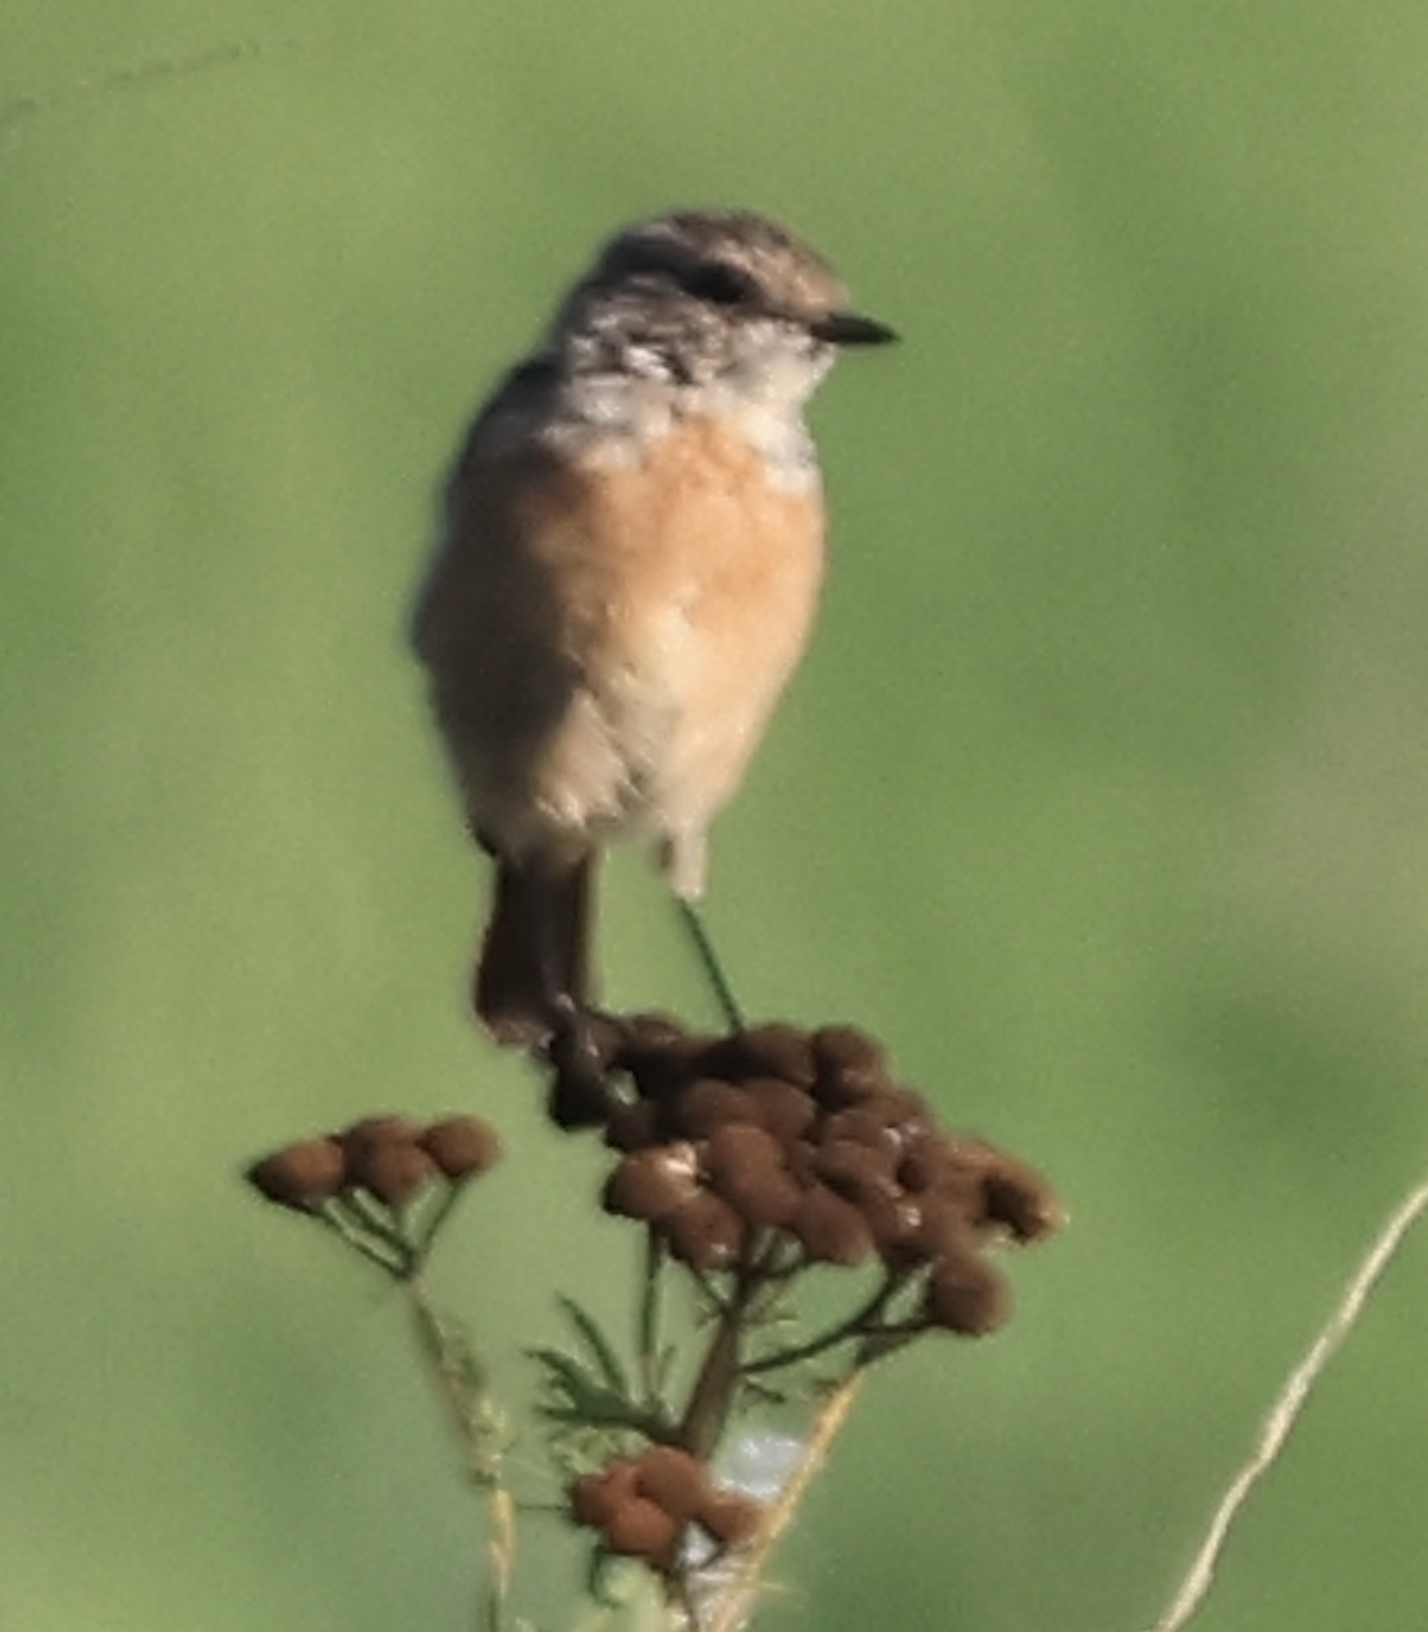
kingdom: Animalia
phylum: Chordata
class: Aves
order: Passeriformes
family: Muscicapidae
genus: Saxicola
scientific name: Saxicola rubicola
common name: European stonechat
